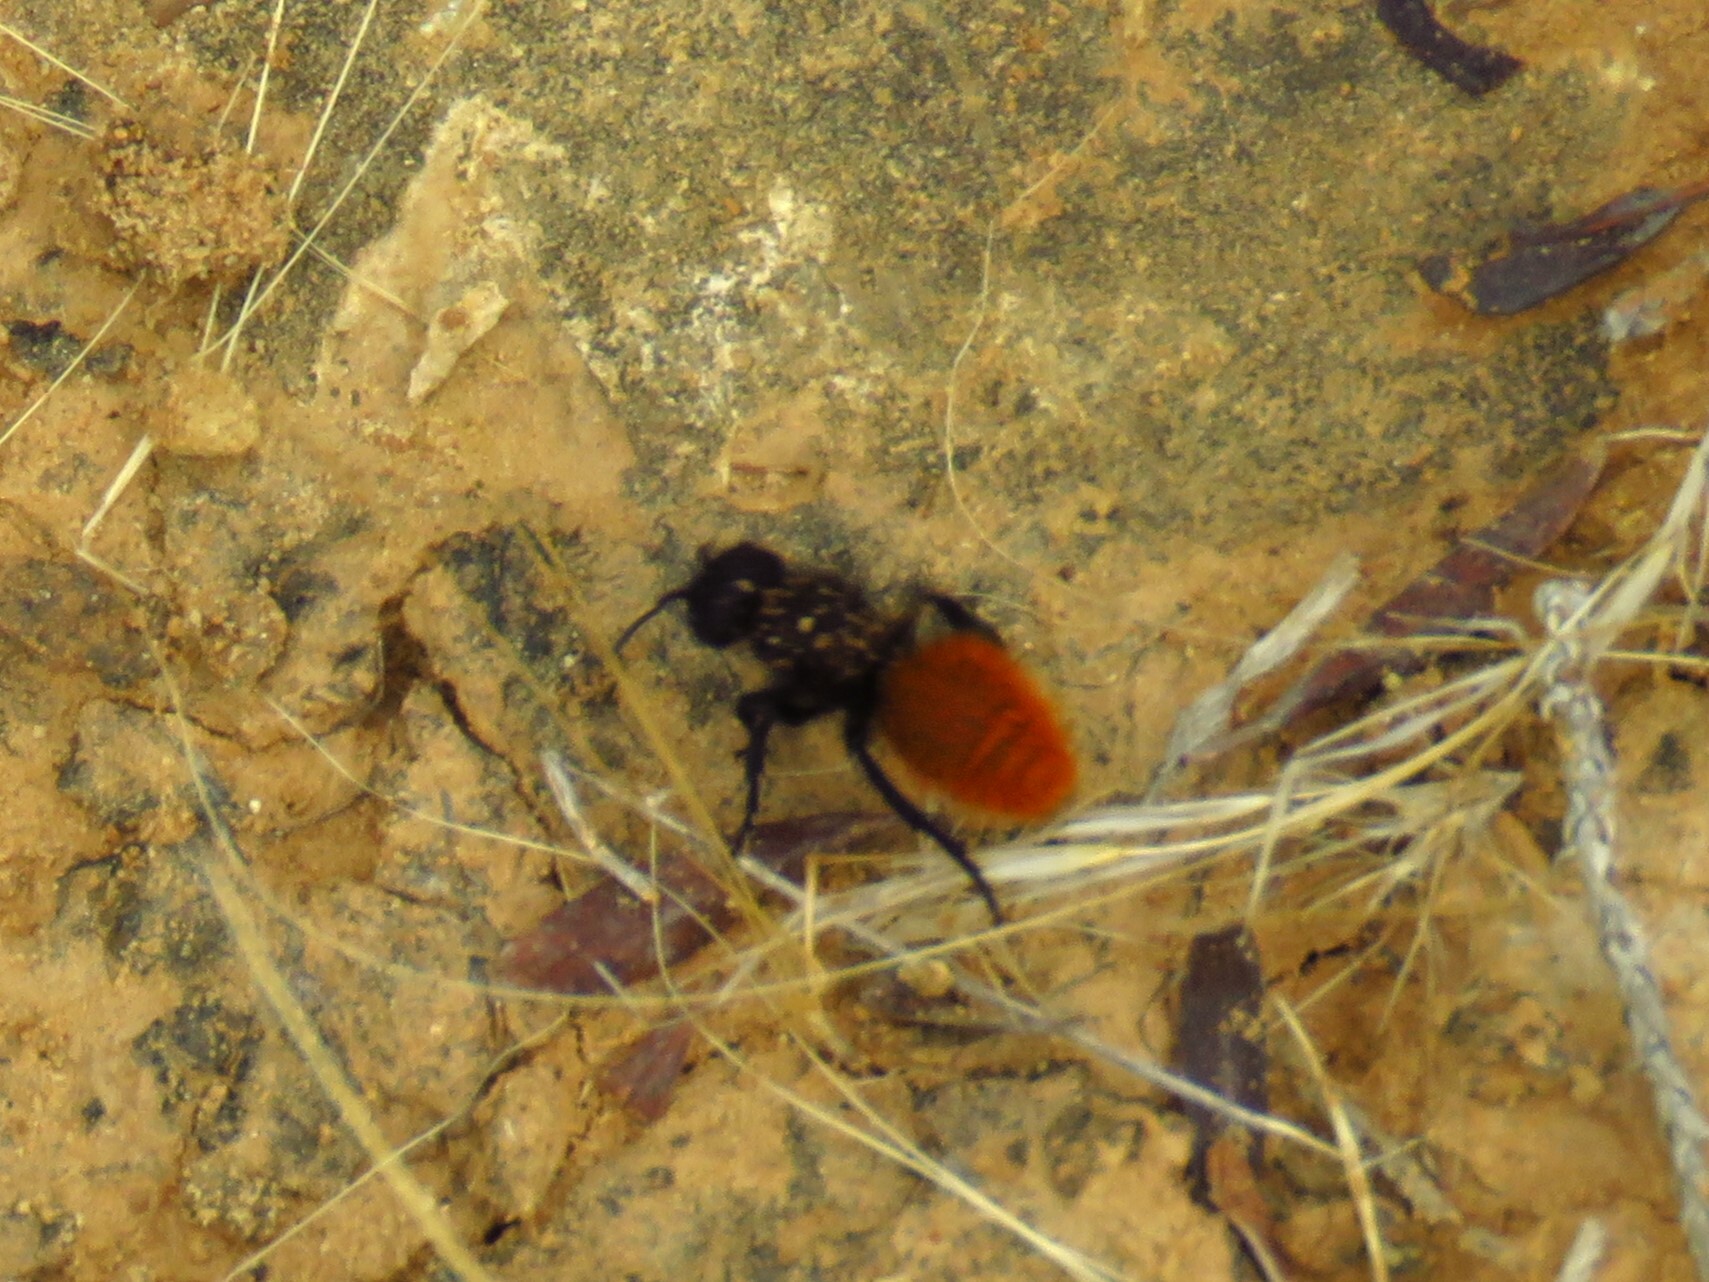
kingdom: Animalia
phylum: Arthropoda
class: Insecta
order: Hymenoptera
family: Mutillidae
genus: Dasymutilla
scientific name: Dasymutilla gorgon
